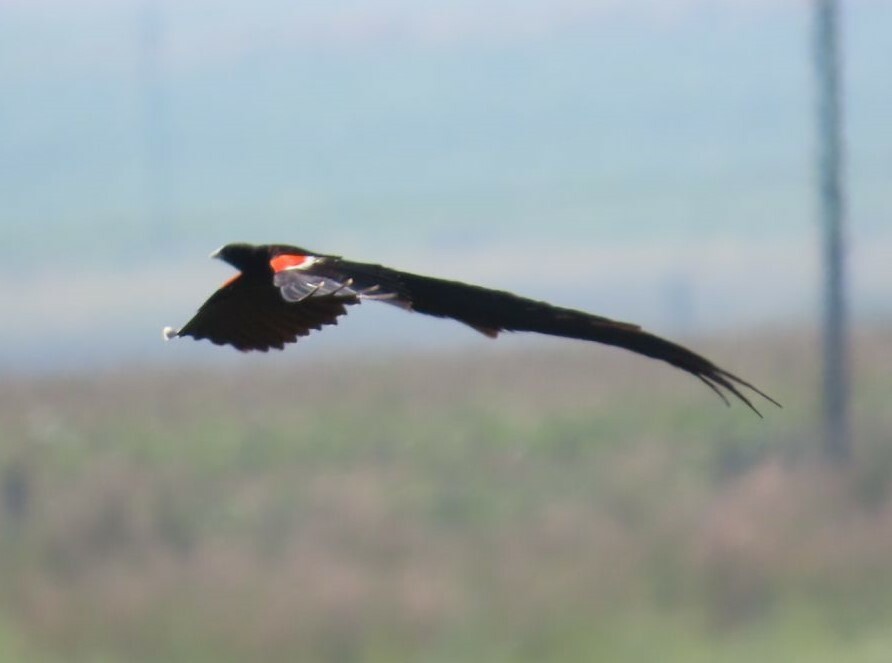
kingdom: Animalia
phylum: Chordata
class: Aves
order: Passeriformes
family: Ploceidae
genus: Euplectes
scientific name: Euplectes progne
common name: Long-tailed widowbird
